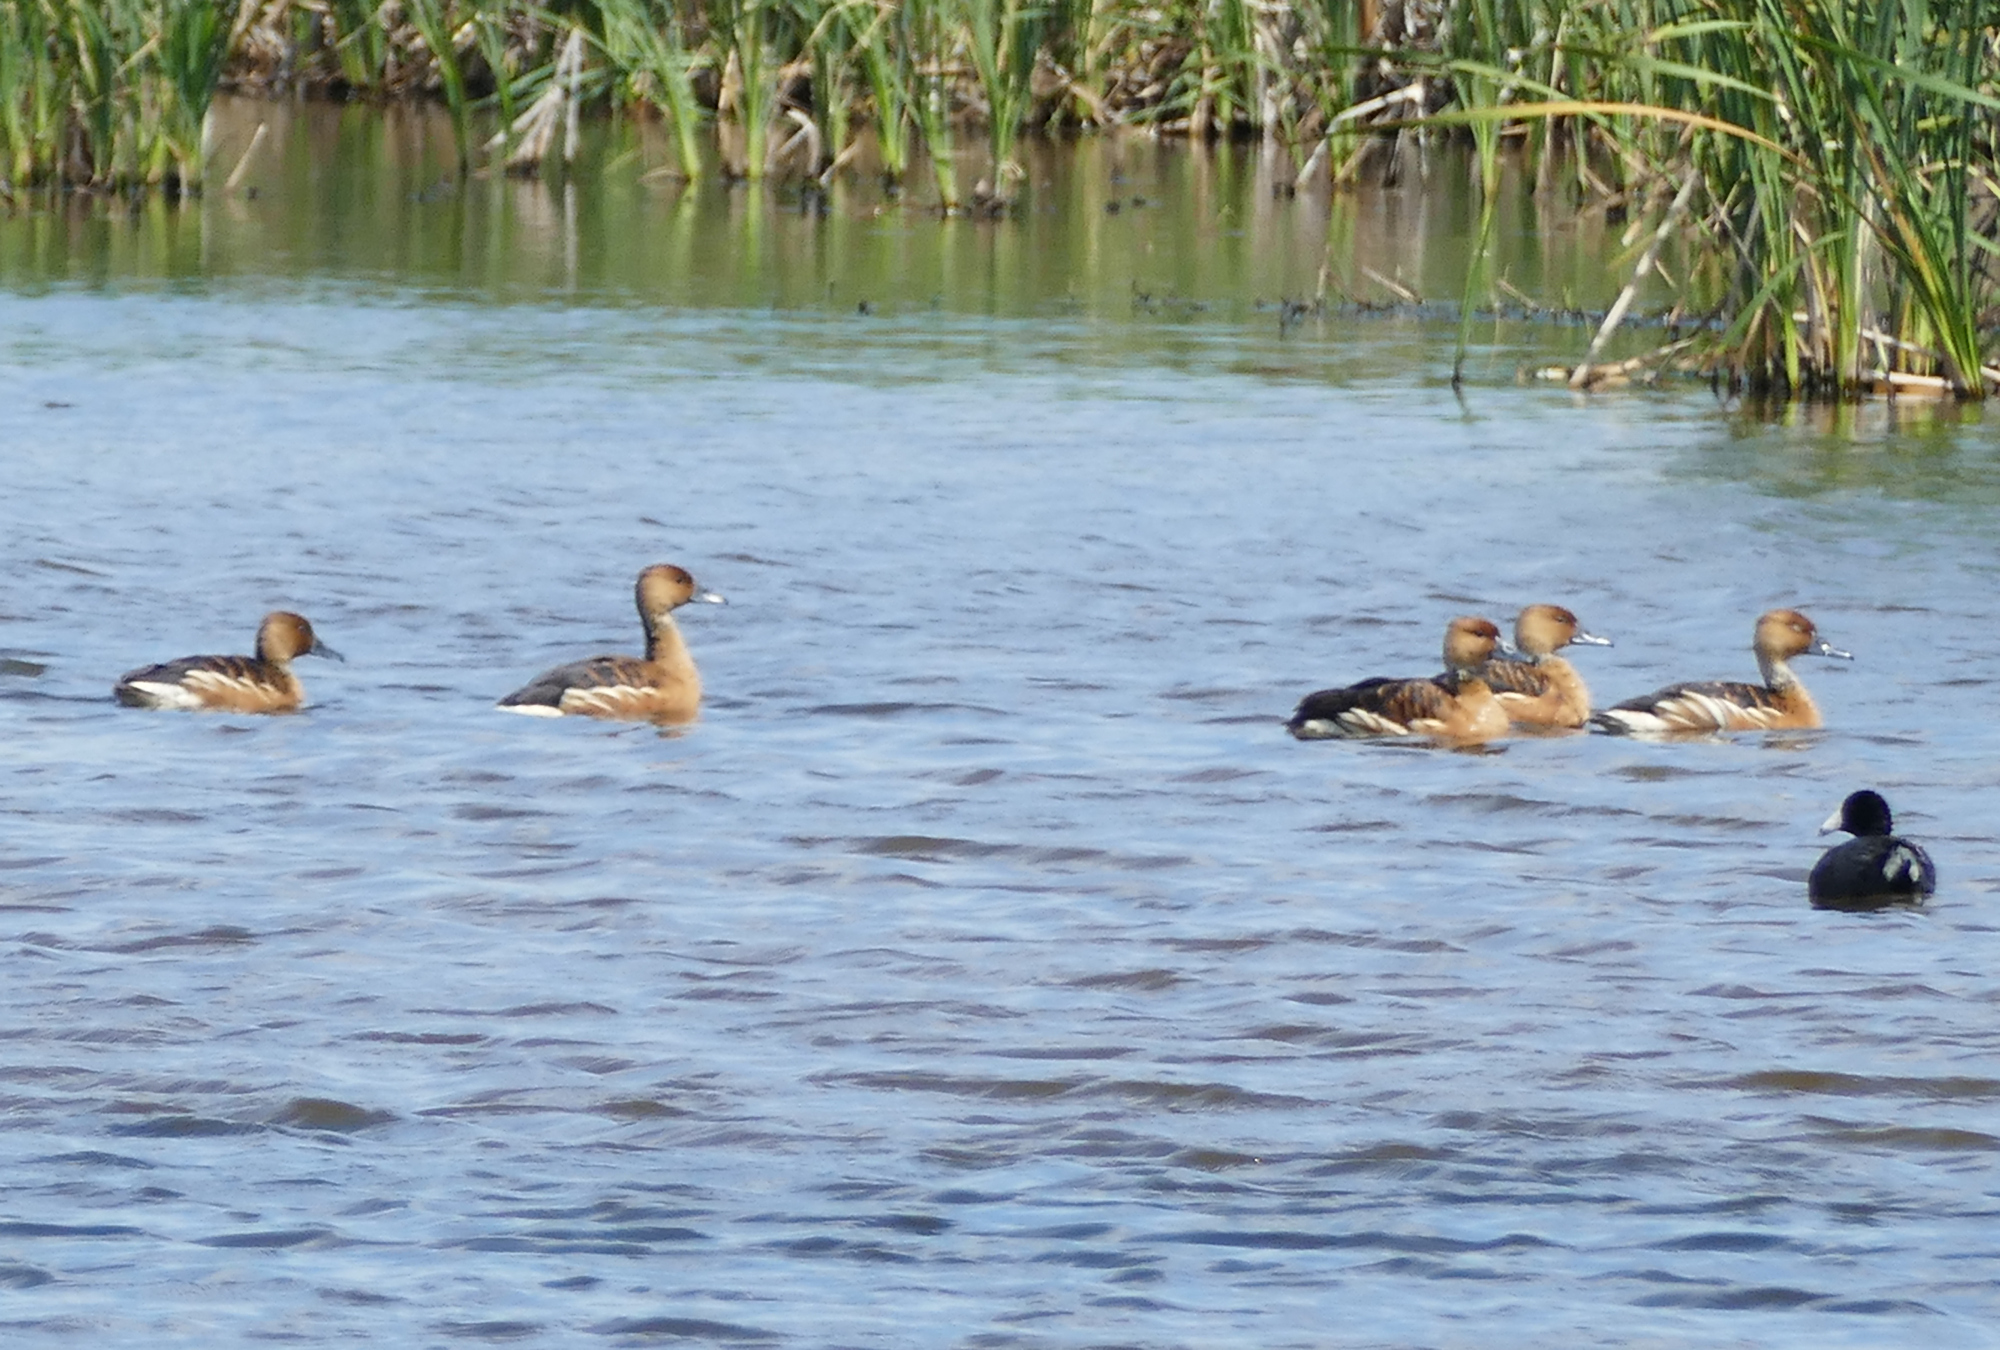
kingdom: Animalia
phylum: Chordata
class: Aves
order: Anseriformes
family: Anatidae
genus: Dendrocygna
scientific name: Dendrocygna bicolor
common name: Fulvous whistling duck
